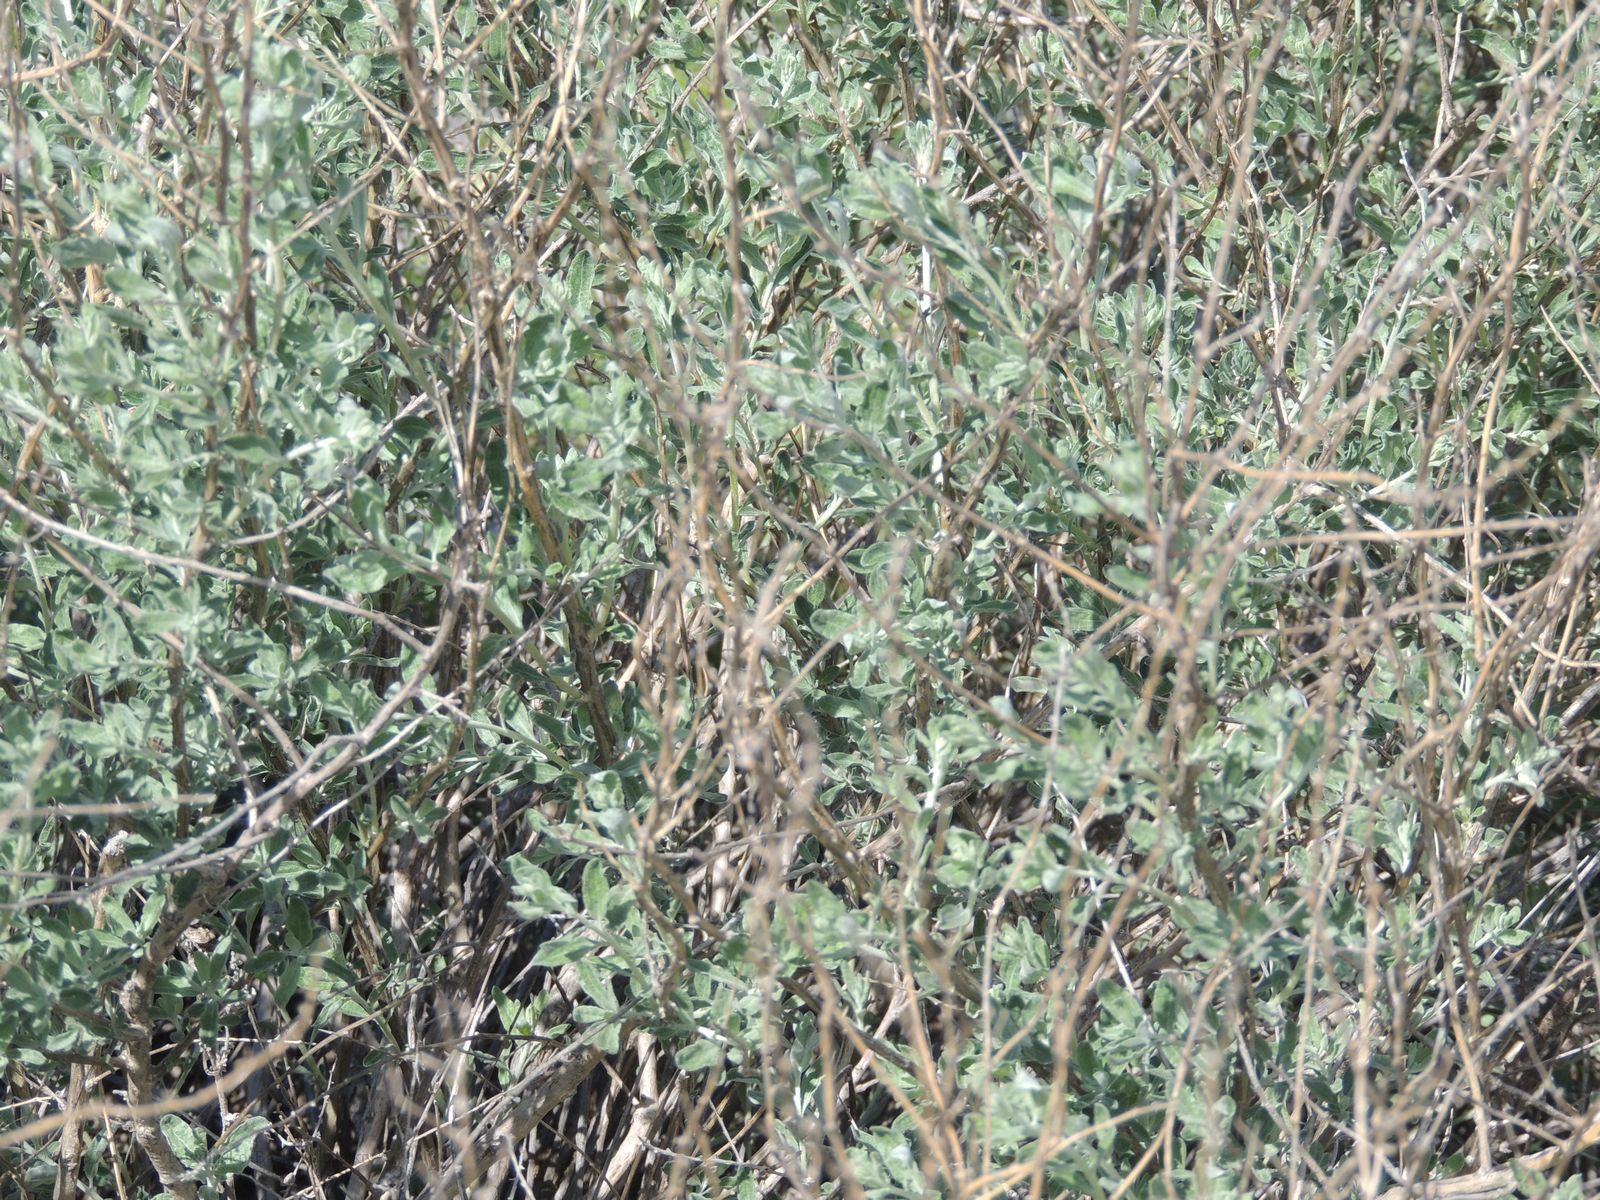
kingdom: Plantae
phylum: Tracheophyta
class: Magnoliopsida
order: Caryophyllales
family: Amaranthaceae
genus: Krascheninnikovia
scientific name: Krascheninnikovia ceratoides
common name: Pamirian winterfat
